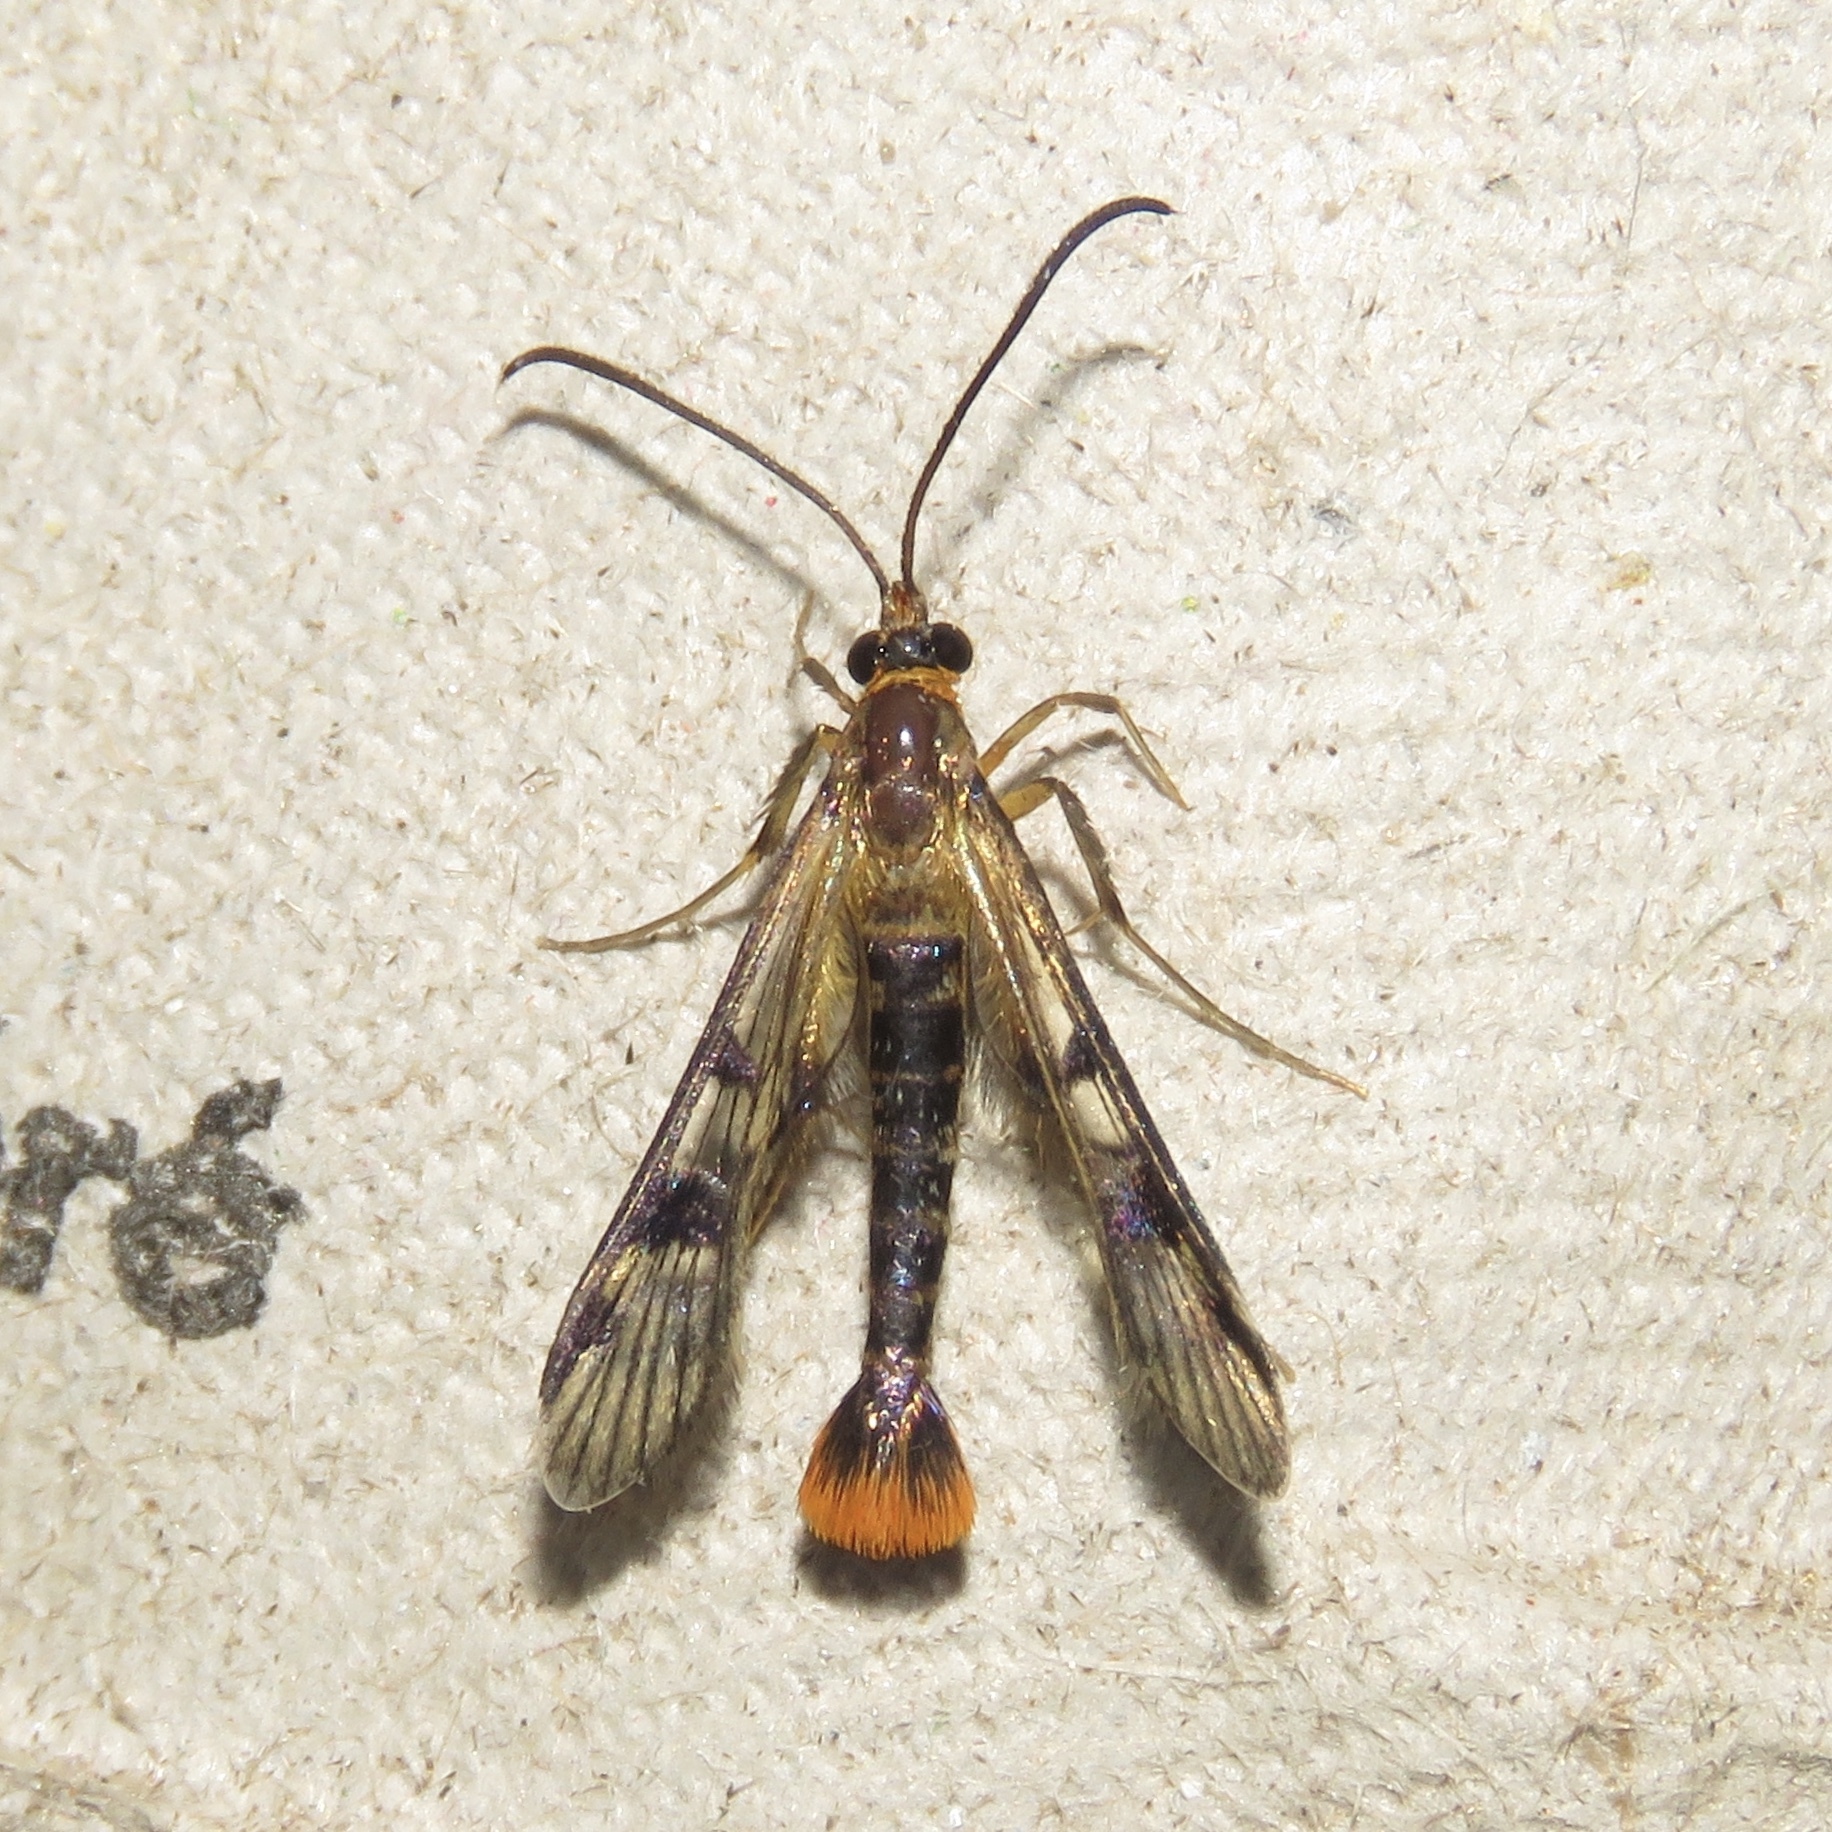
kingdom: Animalia
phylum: Arthropoda
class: Insecta
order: Lepidoptera
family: Sesiidae
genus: Synanthedon
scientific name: Synanthedon acerni
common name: Maple callus borer moth
